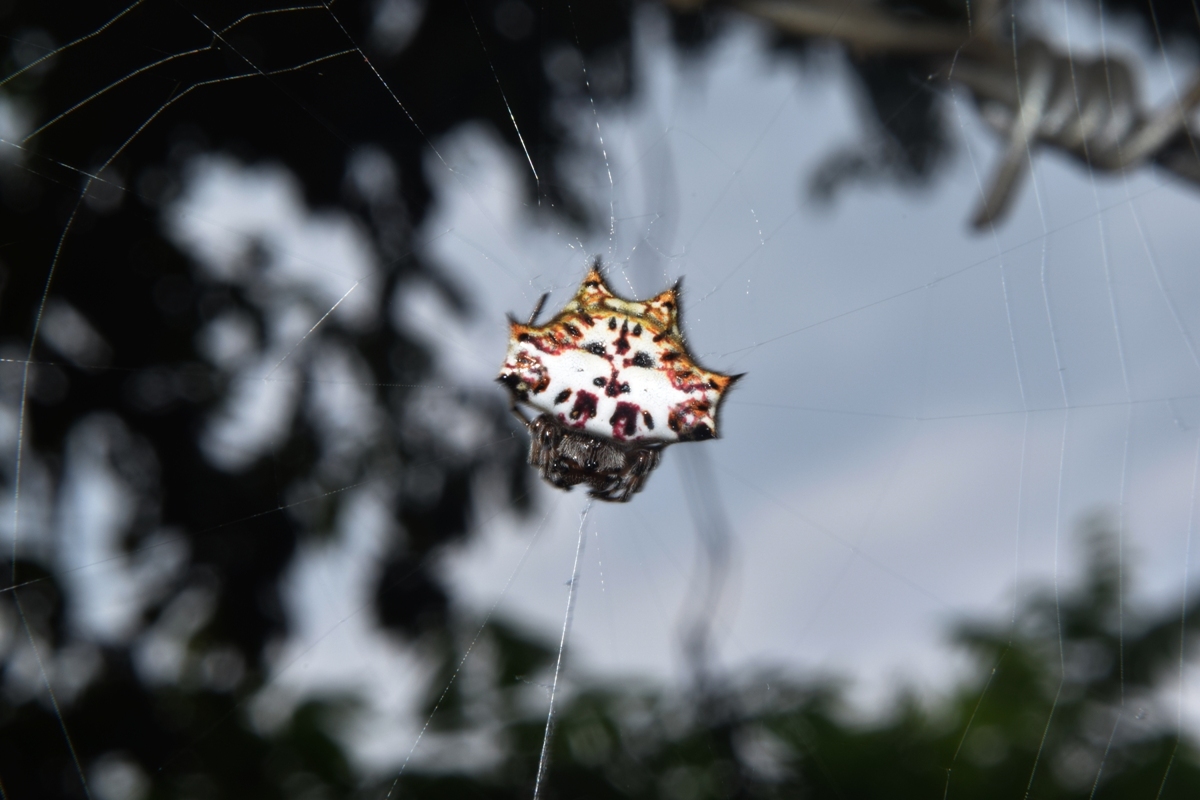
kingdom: Animalia
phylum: Arthropoda
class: Arachnida
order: Araneae
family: Araneidae
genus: Gasteracantha
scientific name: Gasteracantha kuhli
